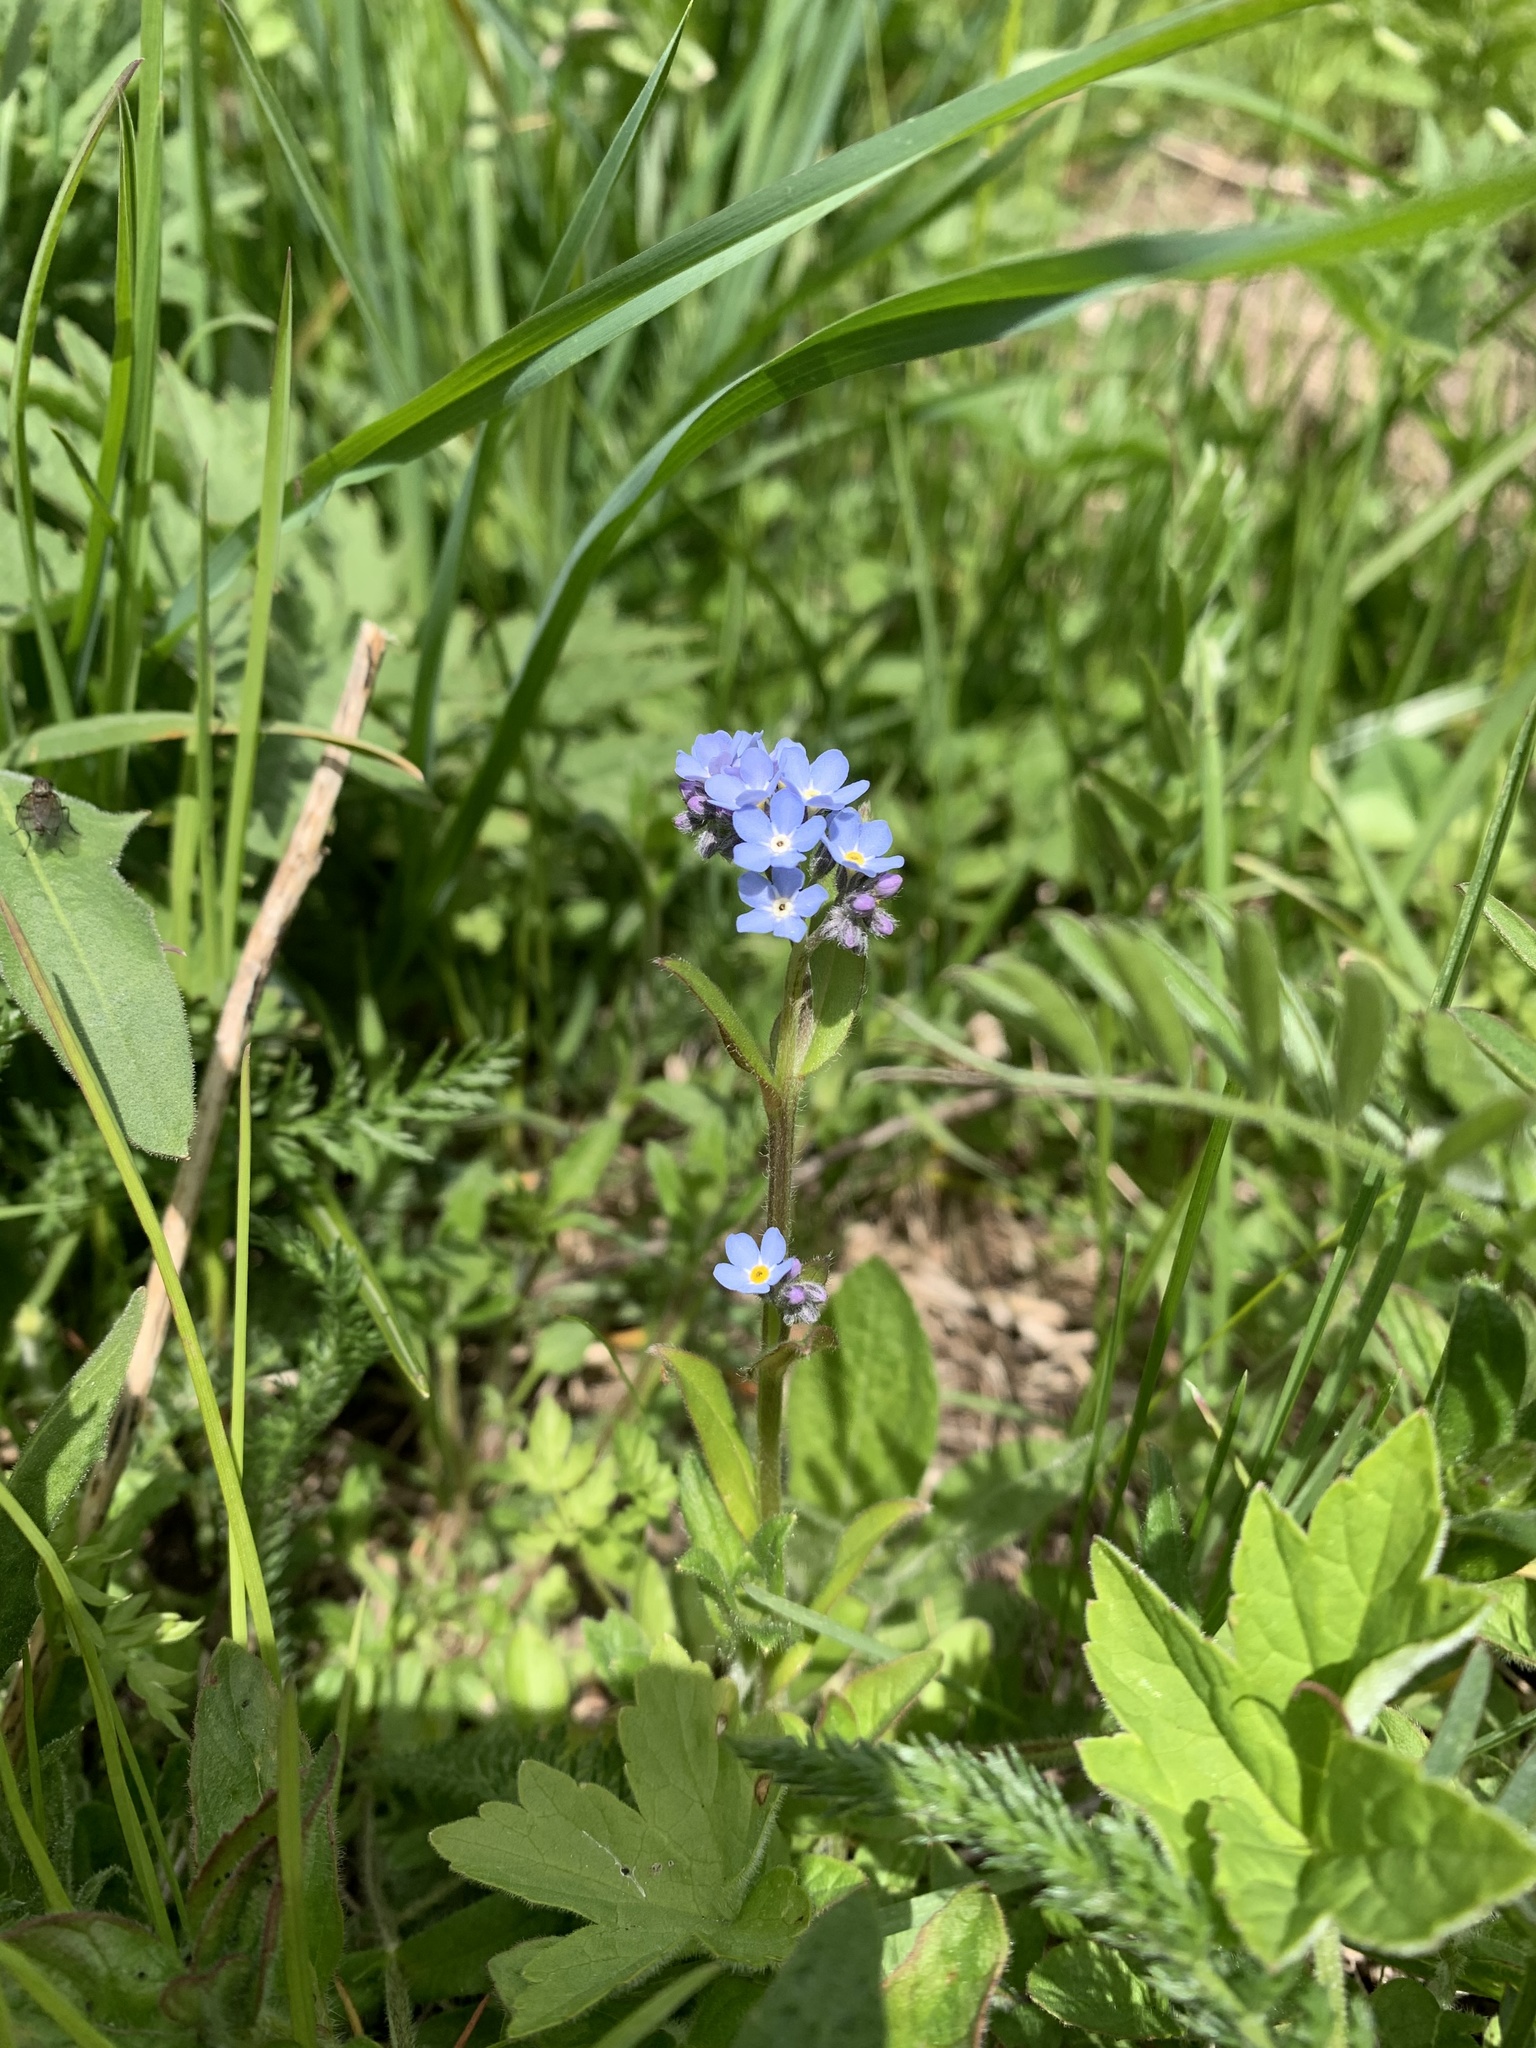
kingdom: Plantae
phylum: Tracheophyta
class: Magnoliopsida
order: Boraginales
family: Boraginaceae
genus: Myosotis
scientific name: Myosotis sylvatica
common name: Wood forget-me-not
